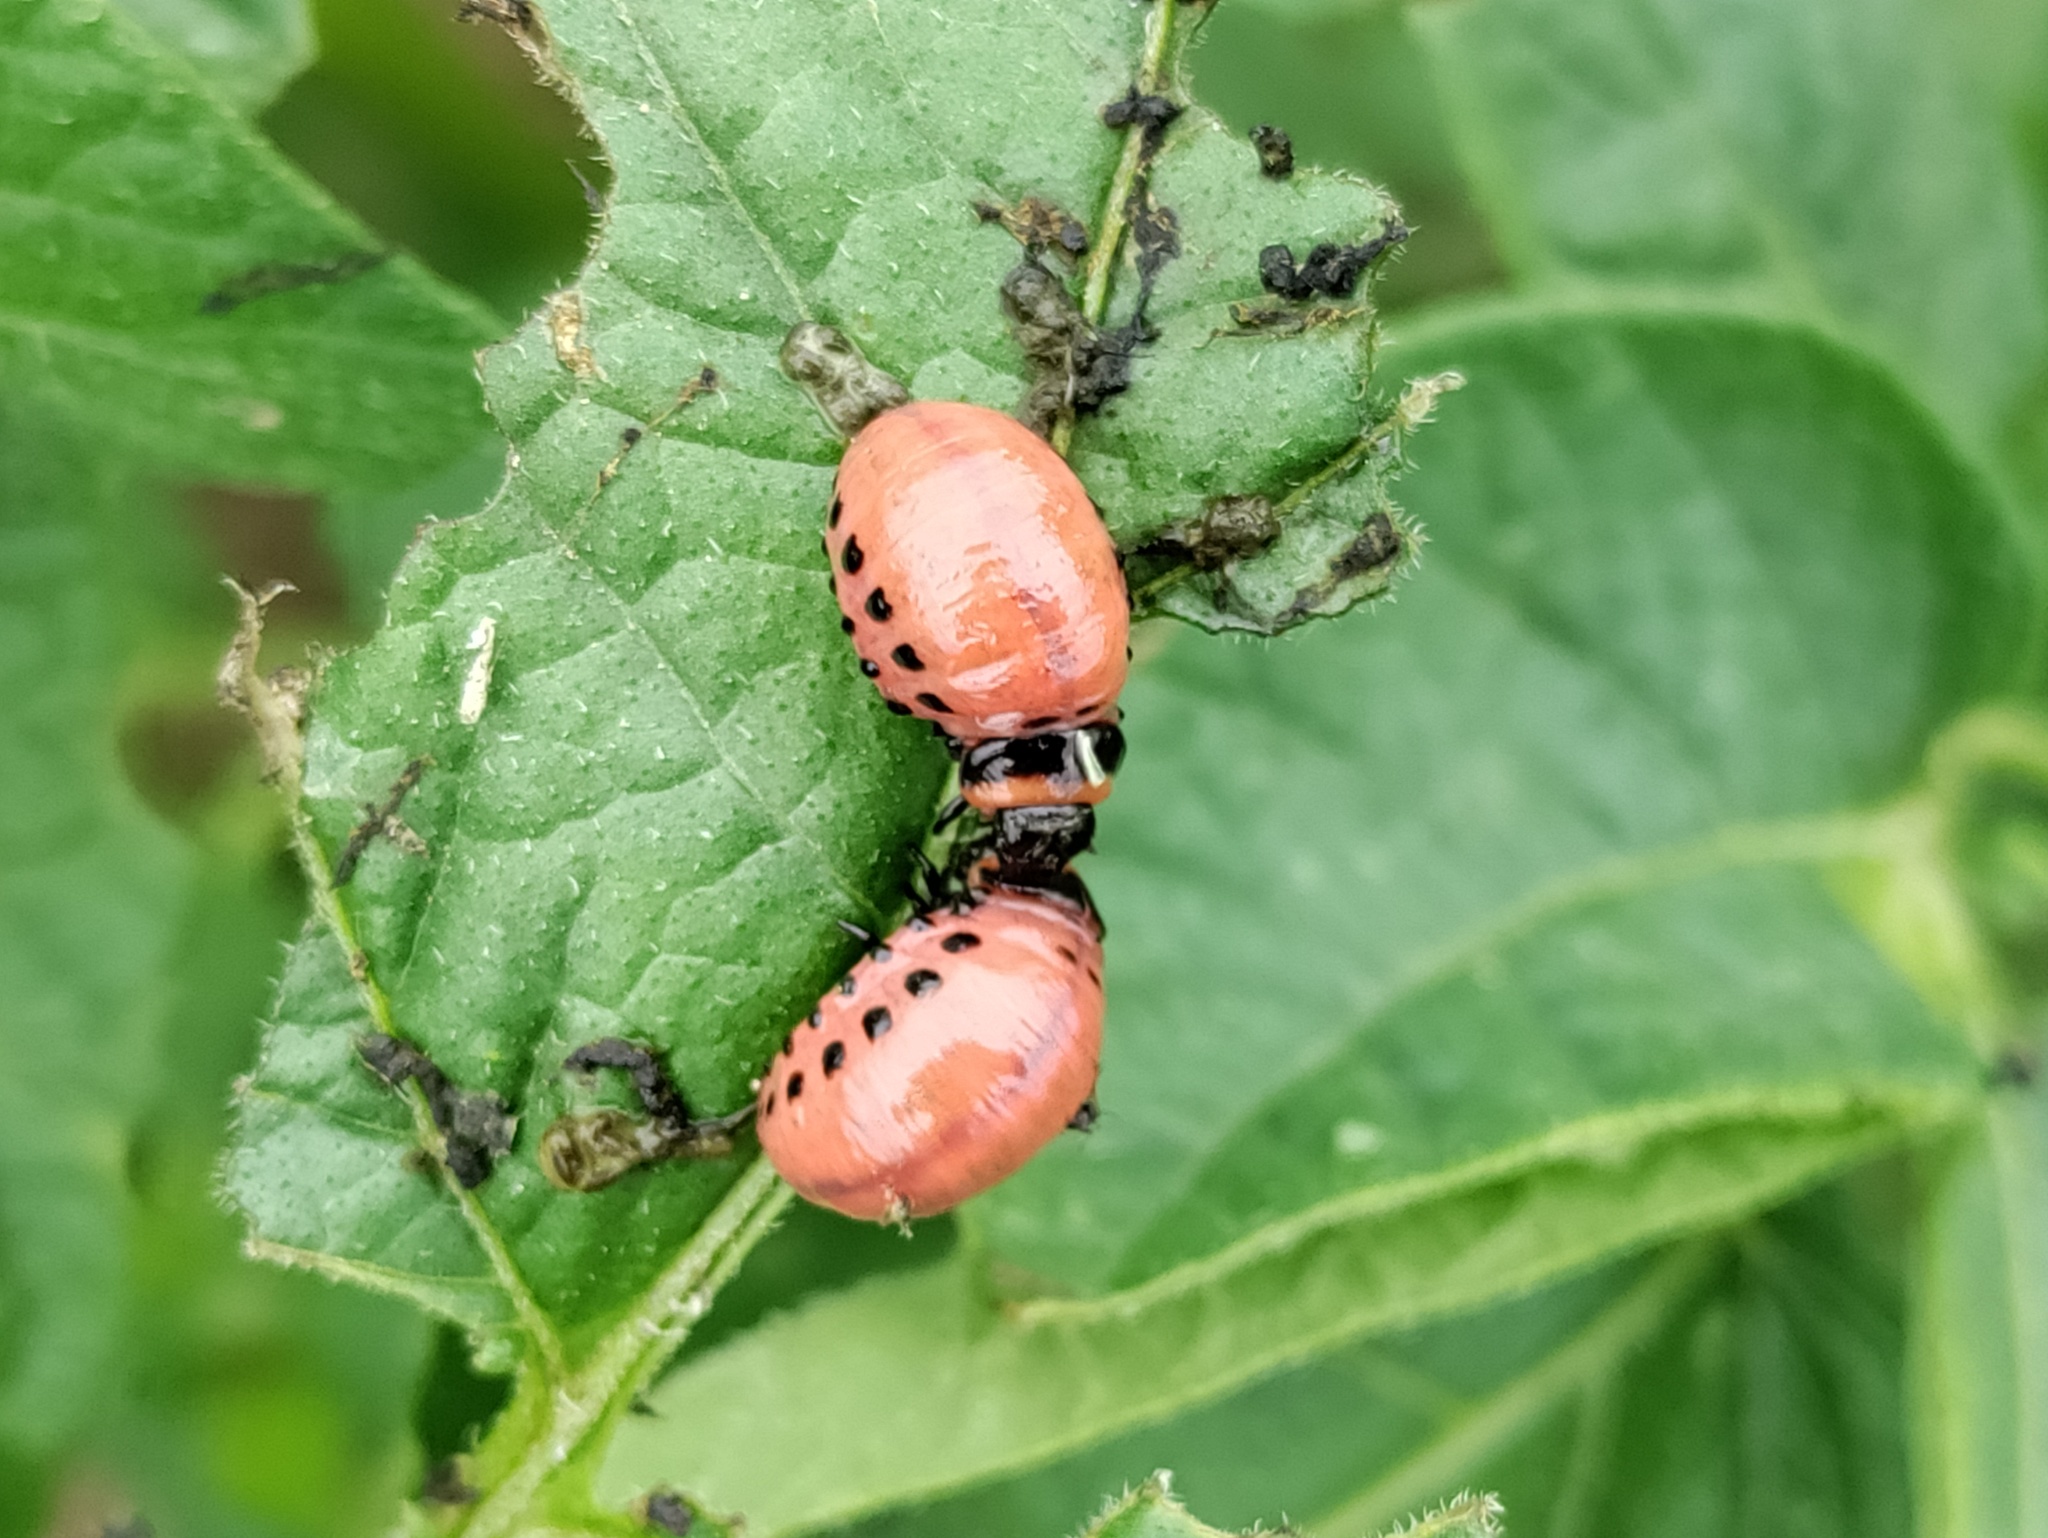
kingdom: Animalia
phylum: Arthropoda
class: Insecta
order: Coleoptera
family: Chrysomelidae
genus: Leptinotarsa
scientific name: Leptinotarsa decemlineata
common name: Colorado potato beetle
